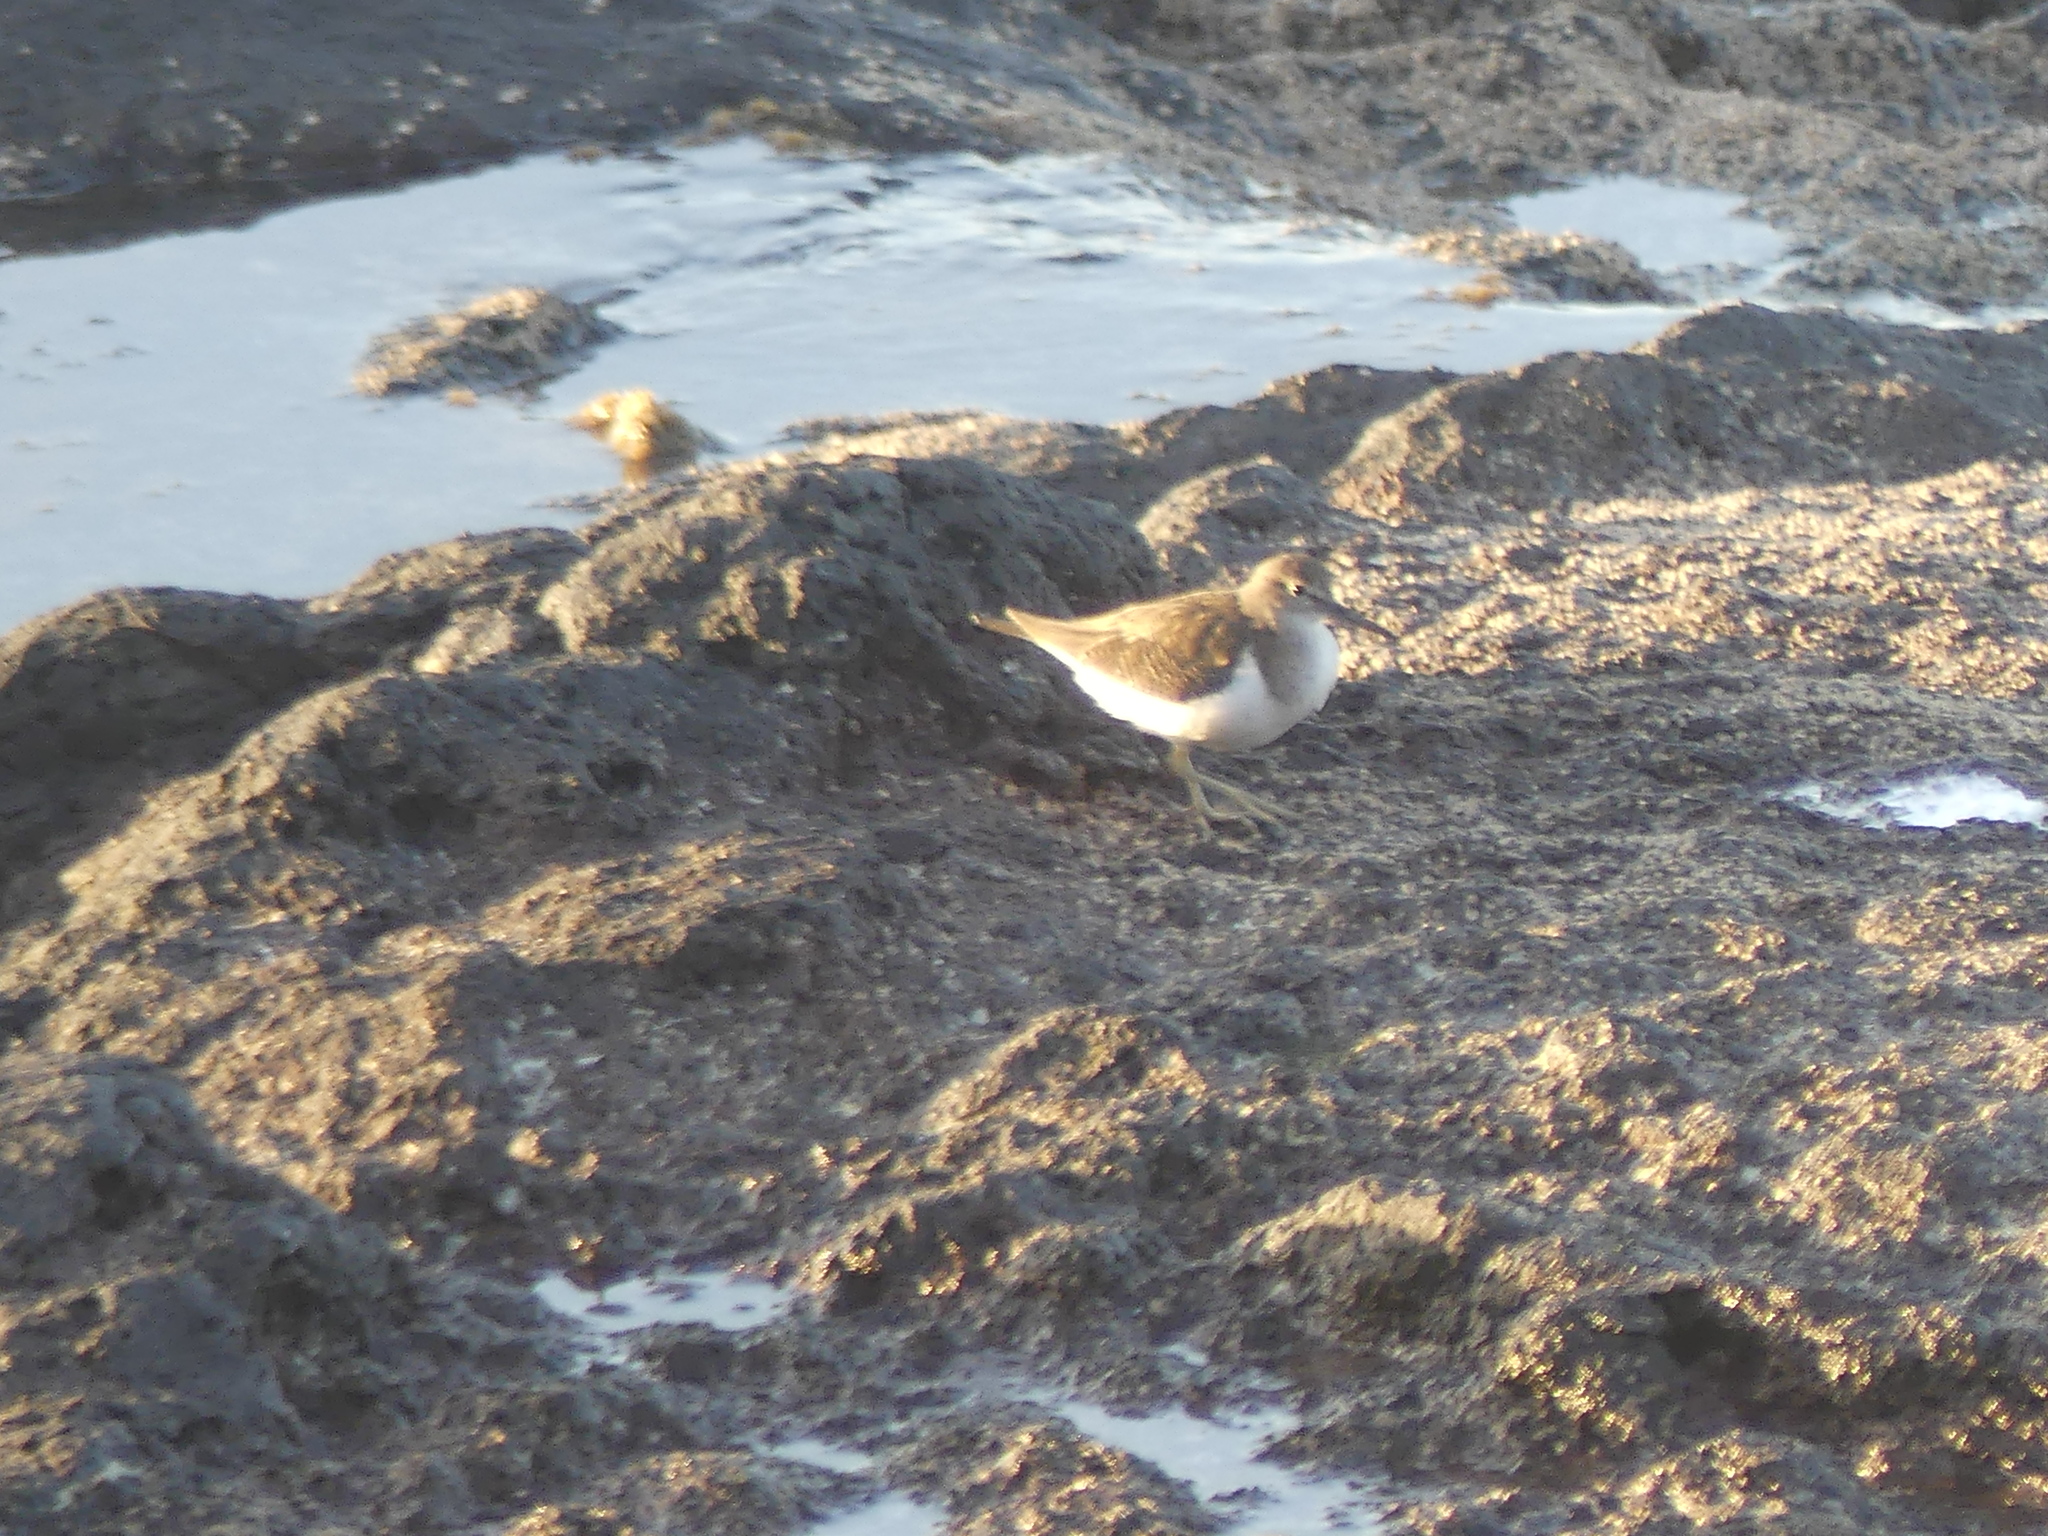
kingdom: Animalia
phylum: Chordata
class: Aves
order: Charadriiformes
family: Scolopacidae
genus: Actitis
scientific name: Actitis hypoleucos
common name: Common sandpiper
